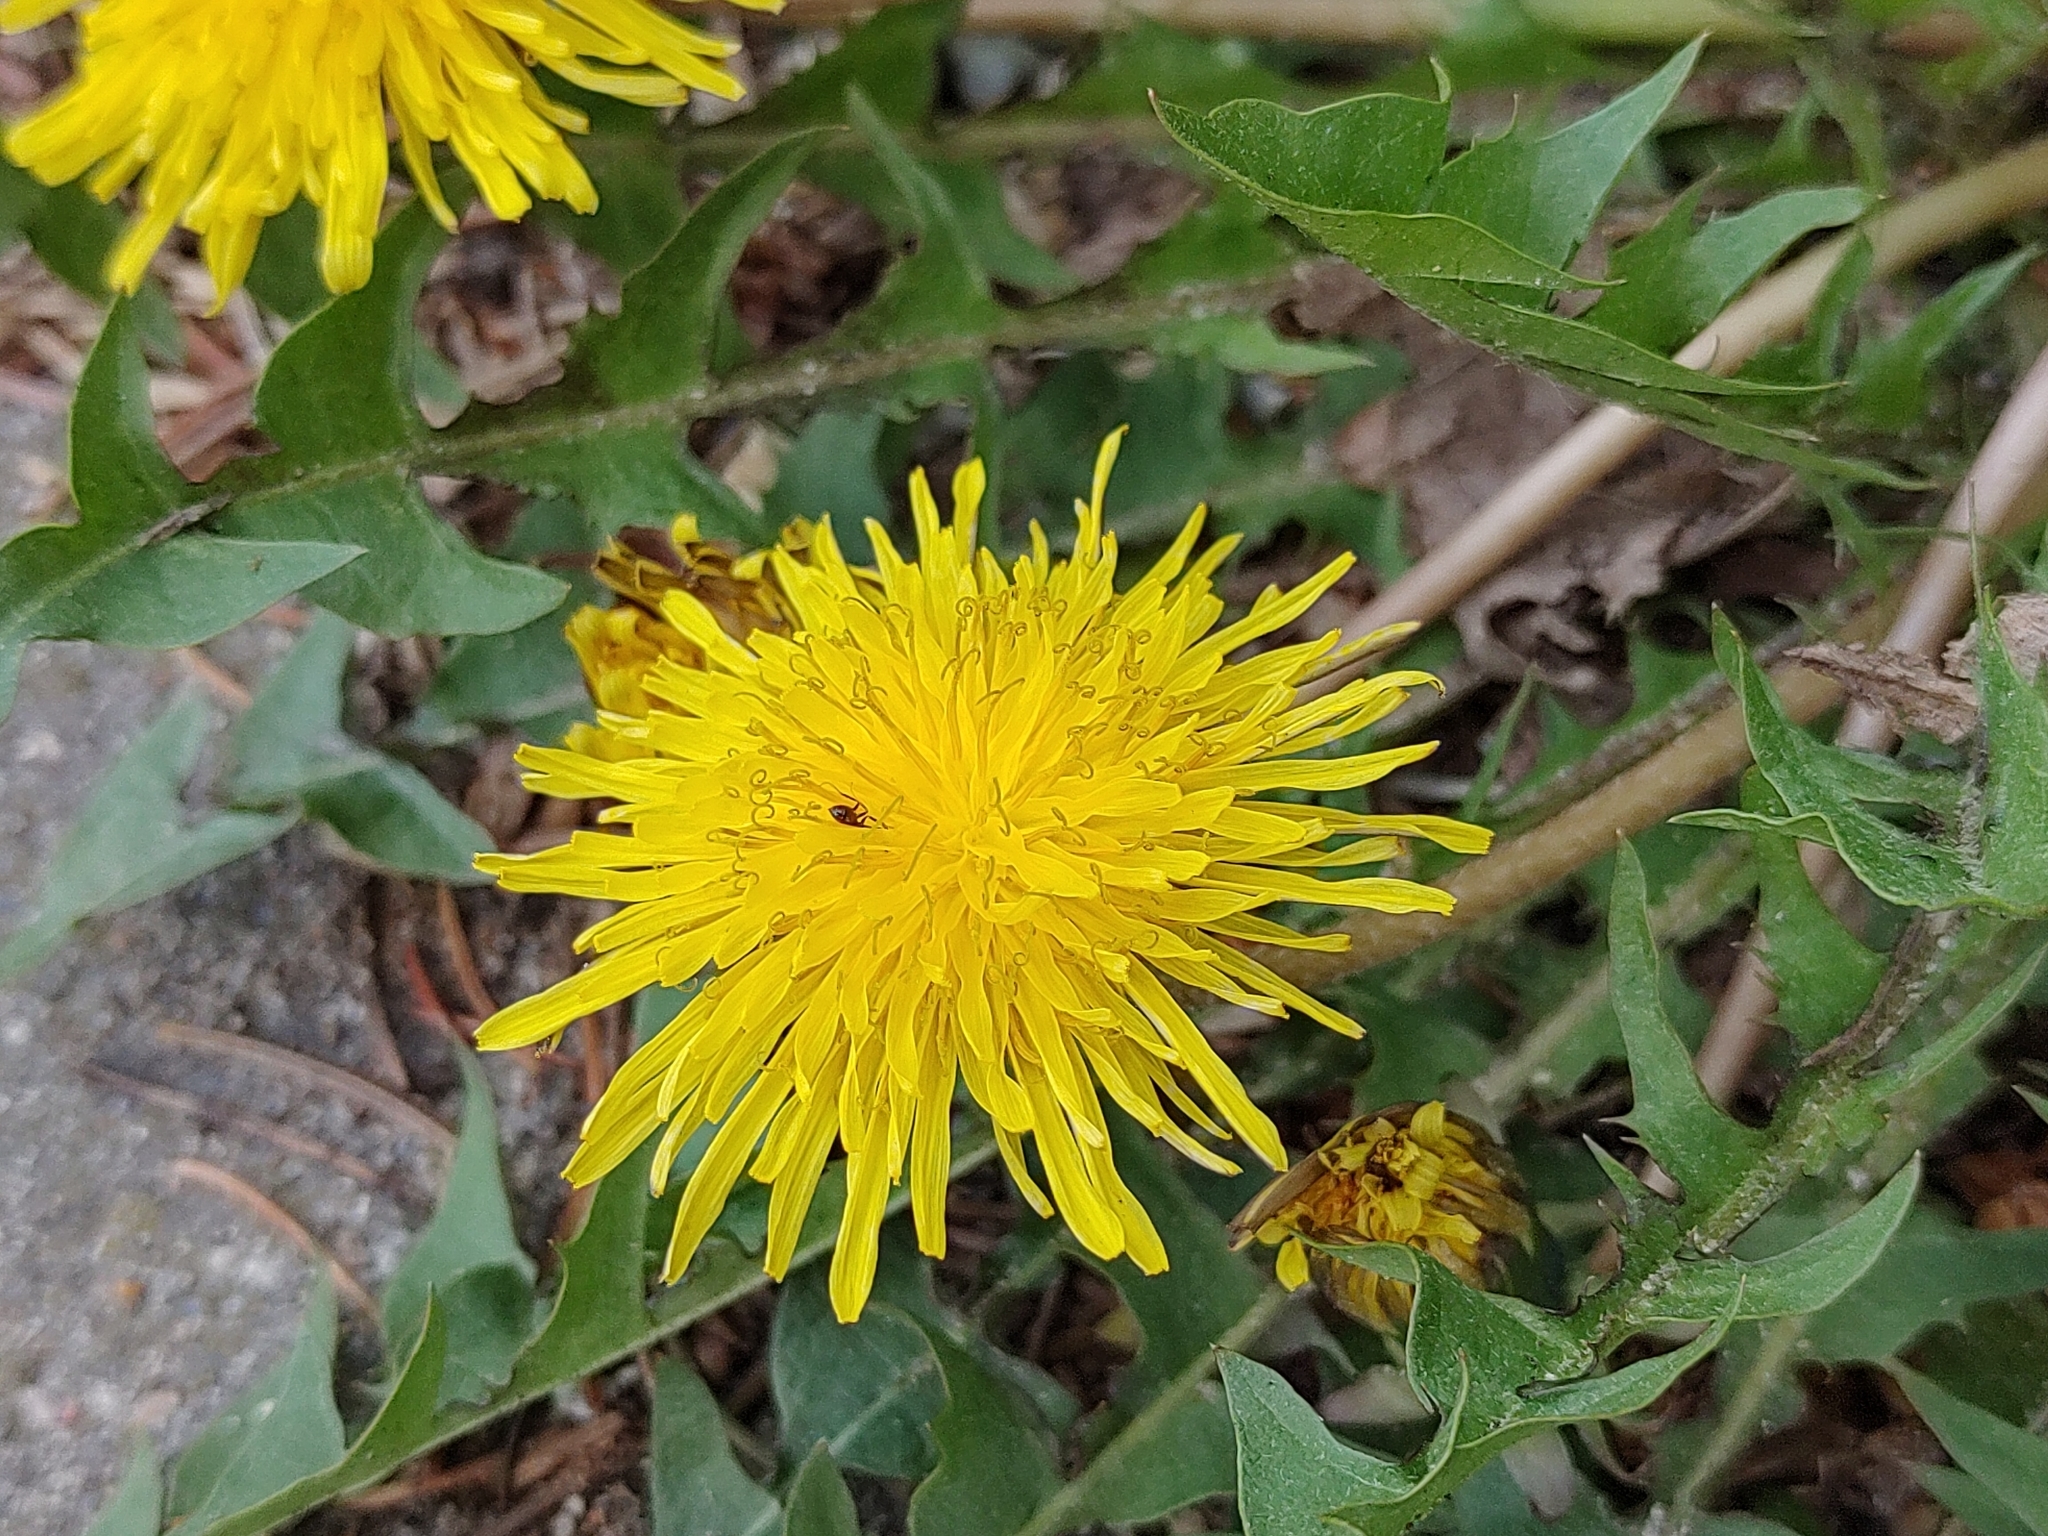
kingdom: Plantae
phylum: Tracheophyta
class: Magnoliopsida
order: Asterales
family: Asteraceae
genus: Taraxacum
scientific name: Taraxacum
